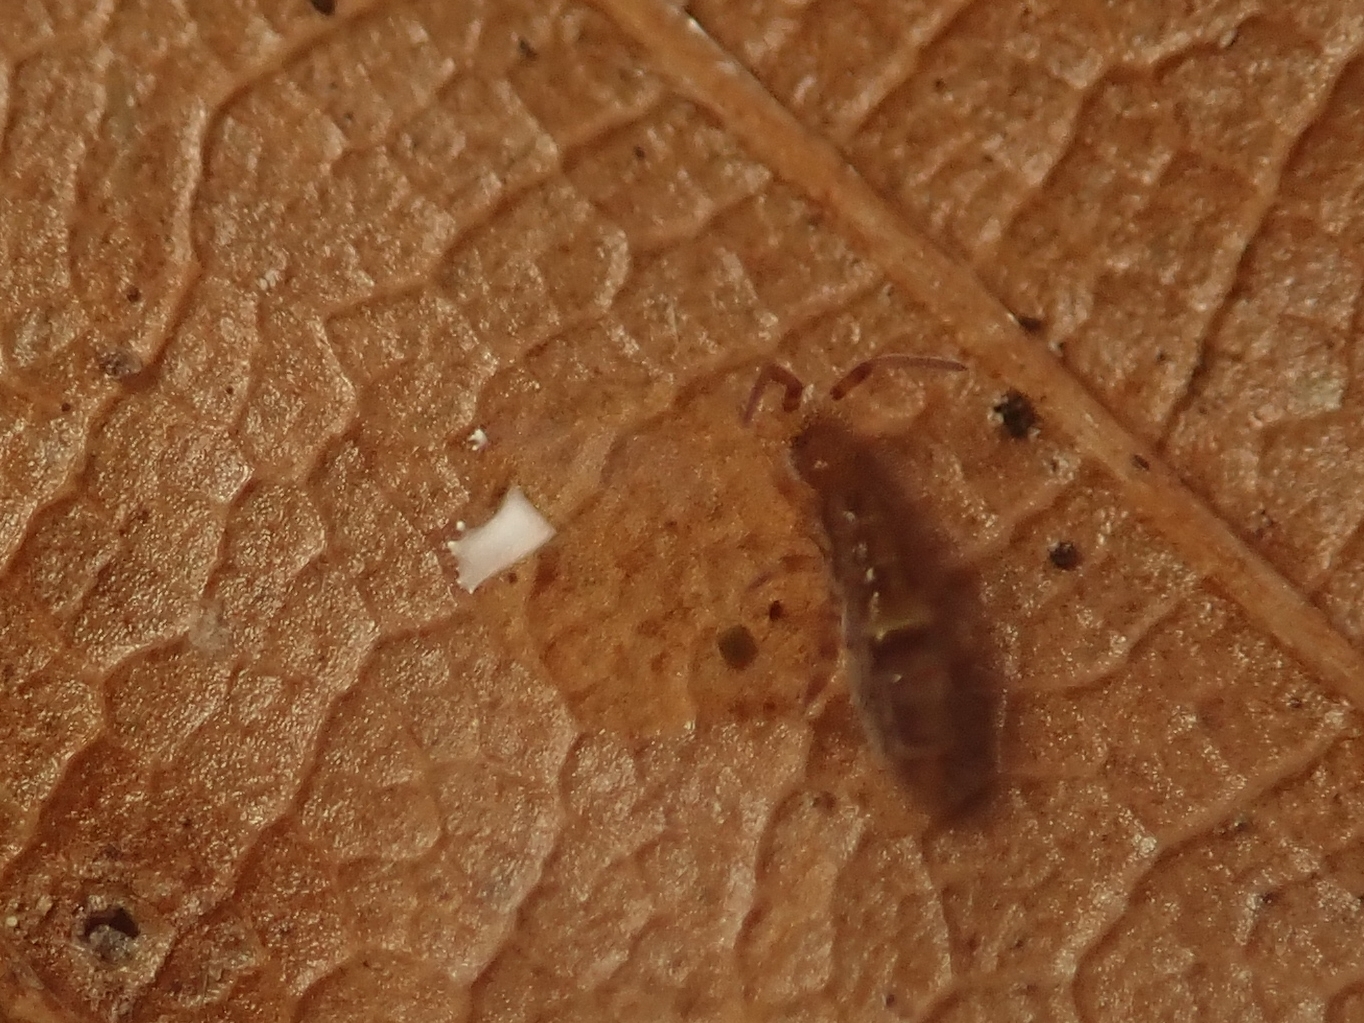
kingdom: Animalia
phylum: Arthropoda
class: Collembola
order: Entomobryomorpha
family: Orchesellidae
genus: Orchesella
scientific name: Orchesella cincta
